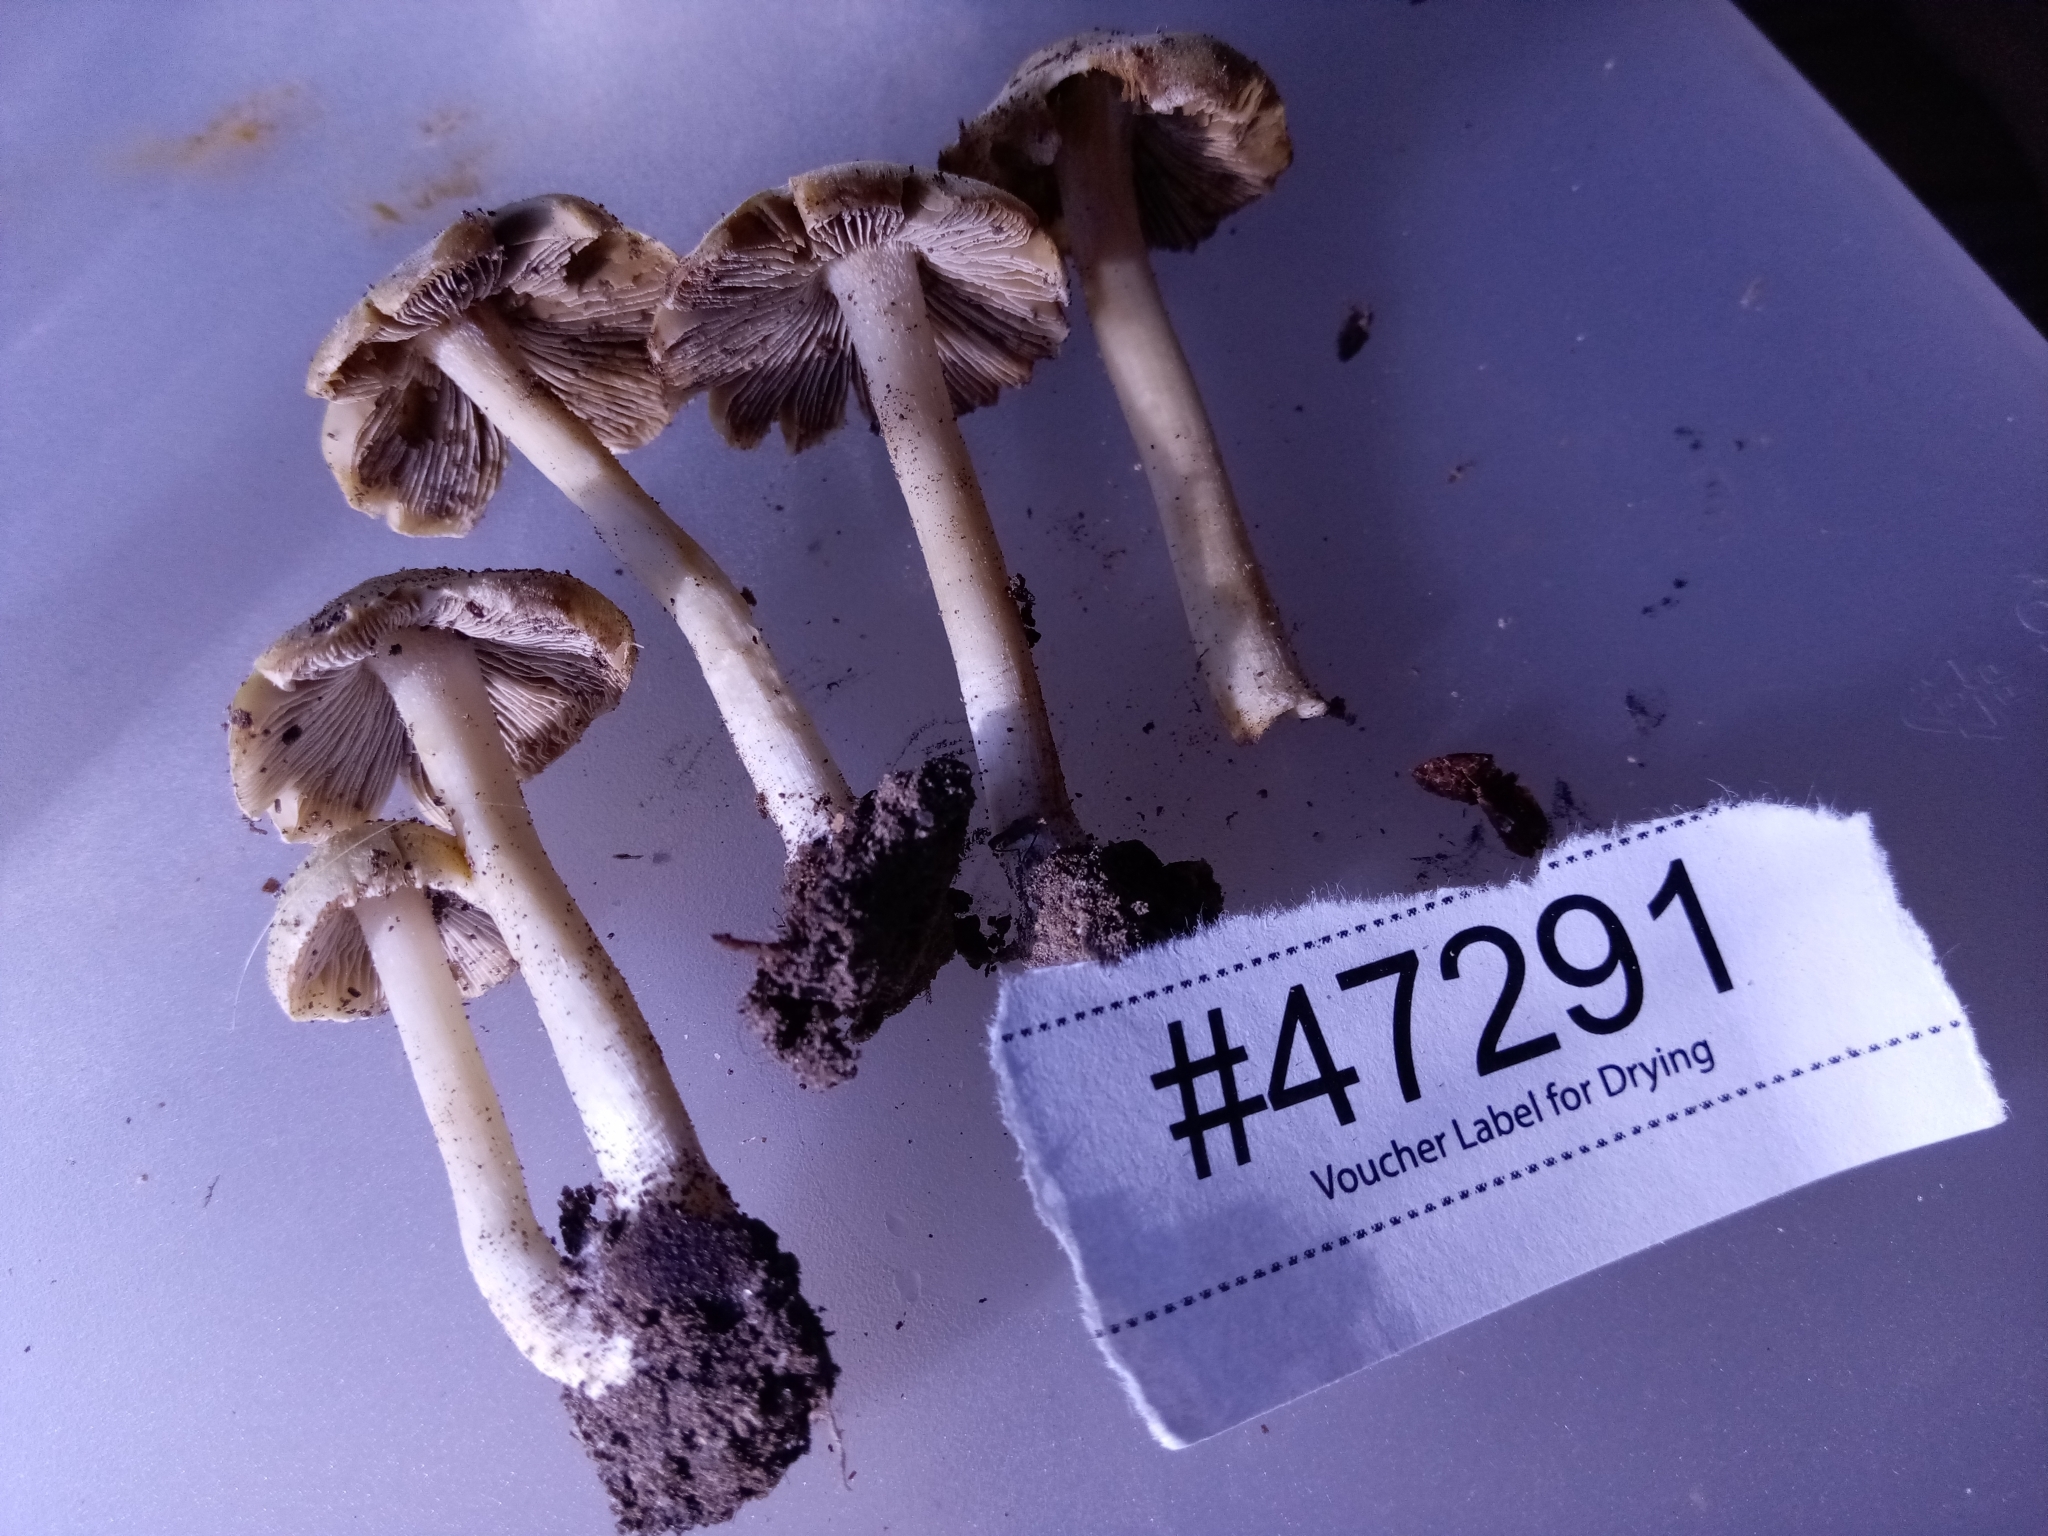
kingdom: Fungi
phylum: Basidiomycota
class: Agaricomycetes
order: Agaricales
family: Inocybaceae
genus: Inosperma
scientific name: Inosperma rimosoides
